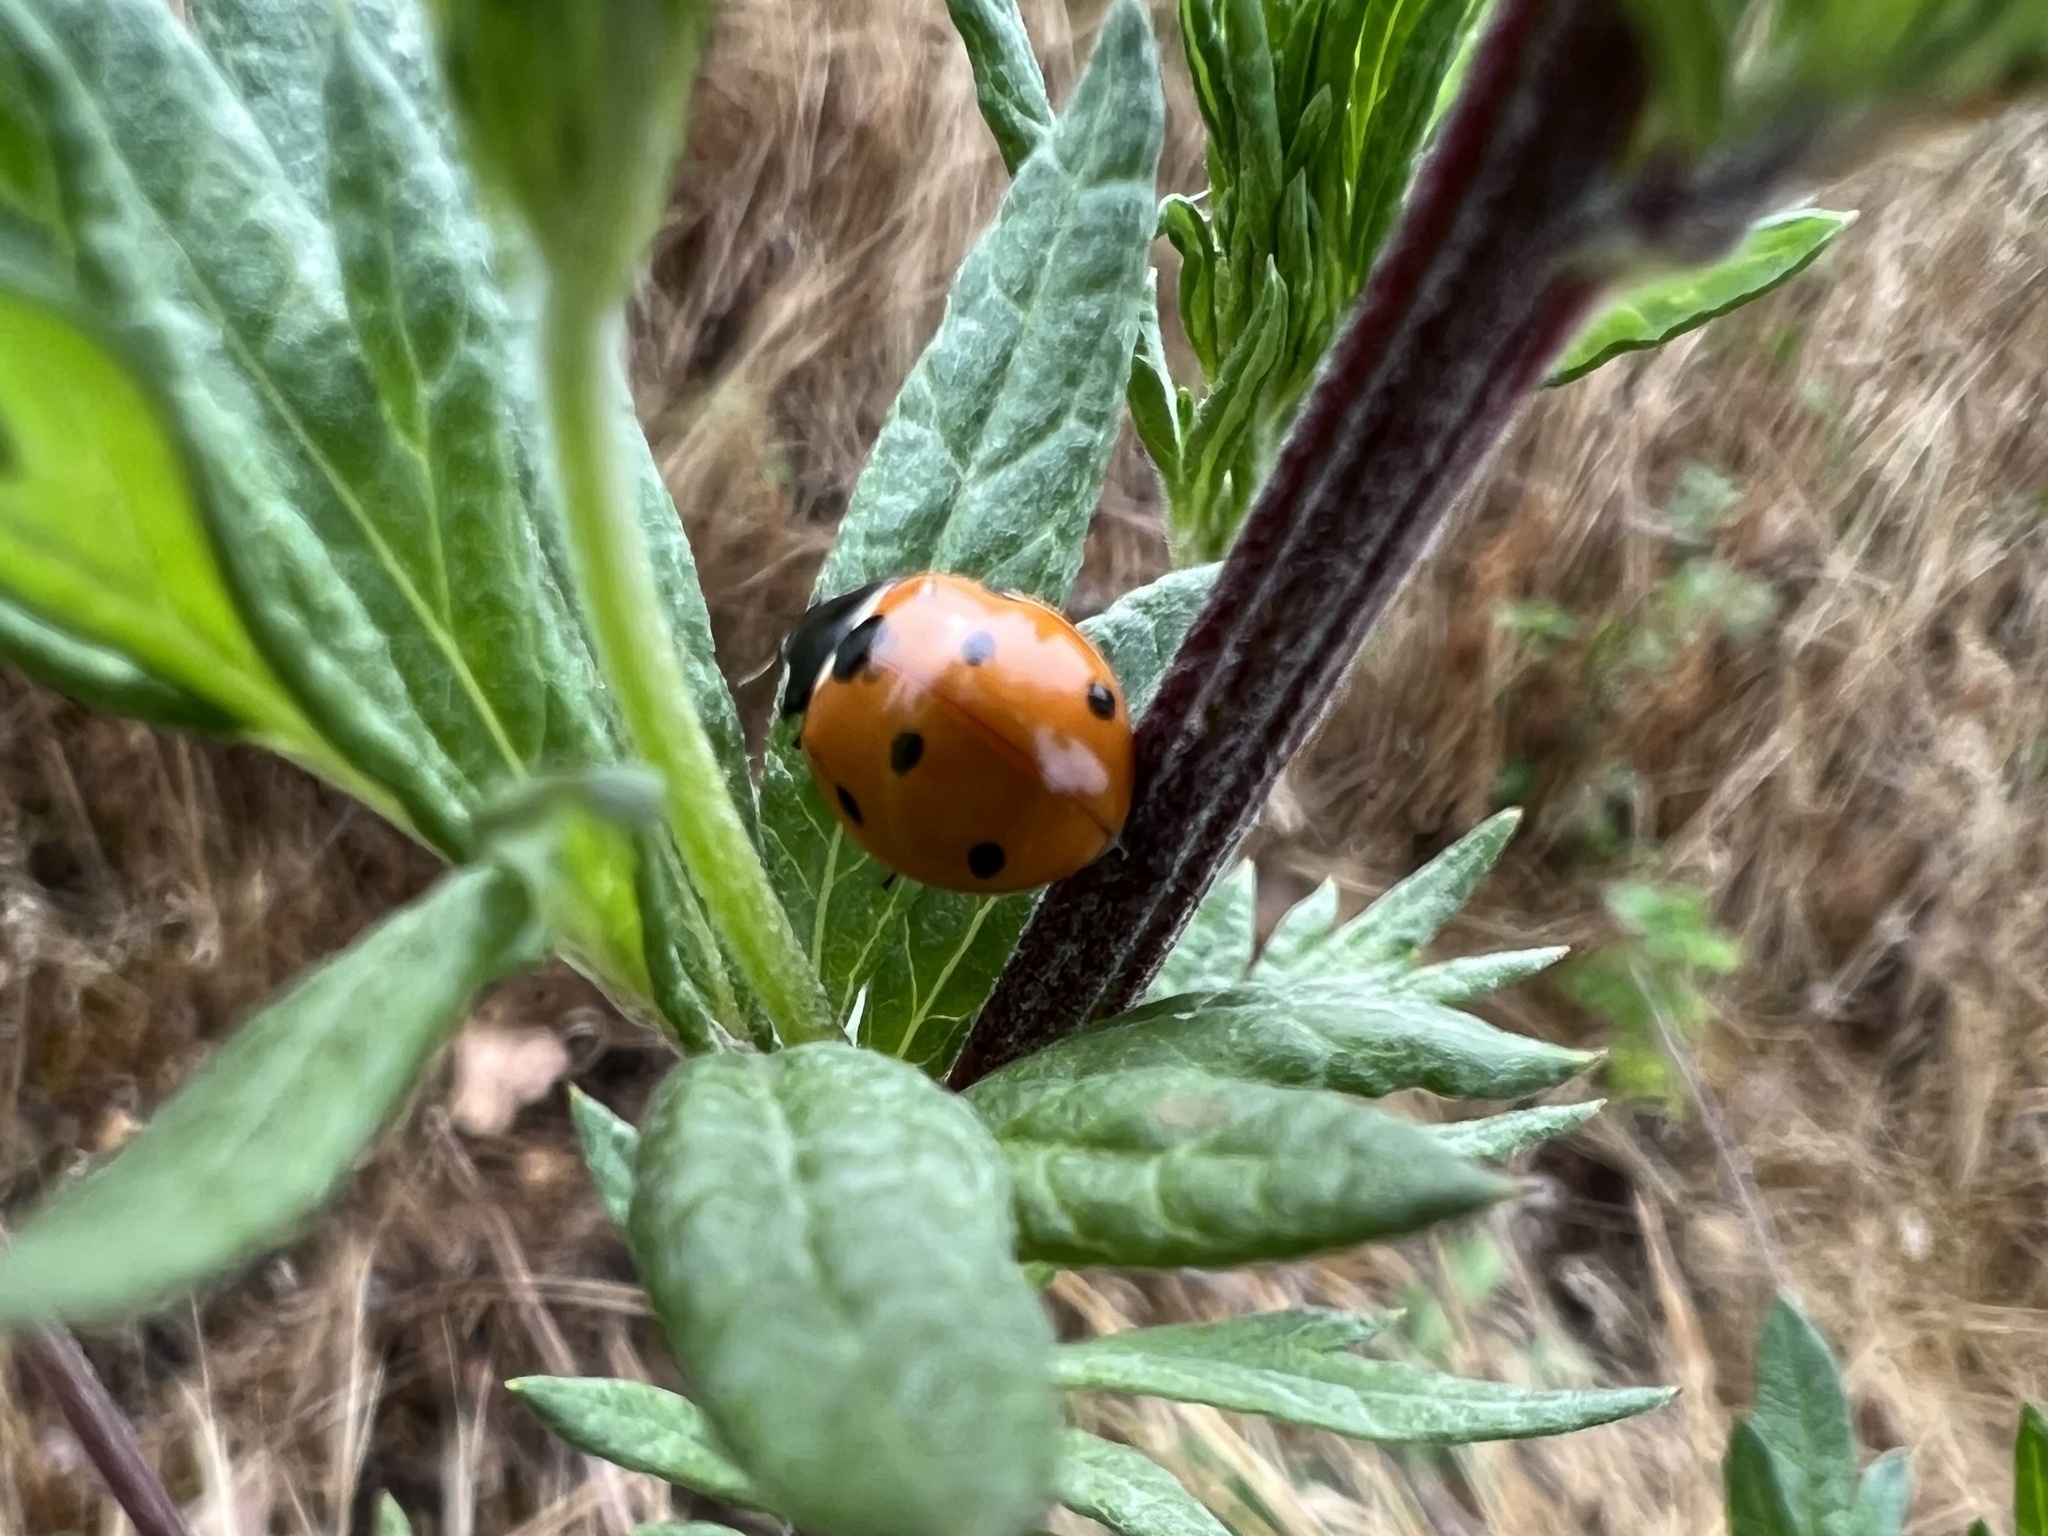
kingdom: Animalia
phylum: Arthropoda
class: Insecta
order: Coleoptera
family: Coccinellidae
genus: Coccinella
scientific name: Coccinella septempunctata
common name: Sevenspotted lady beetle
